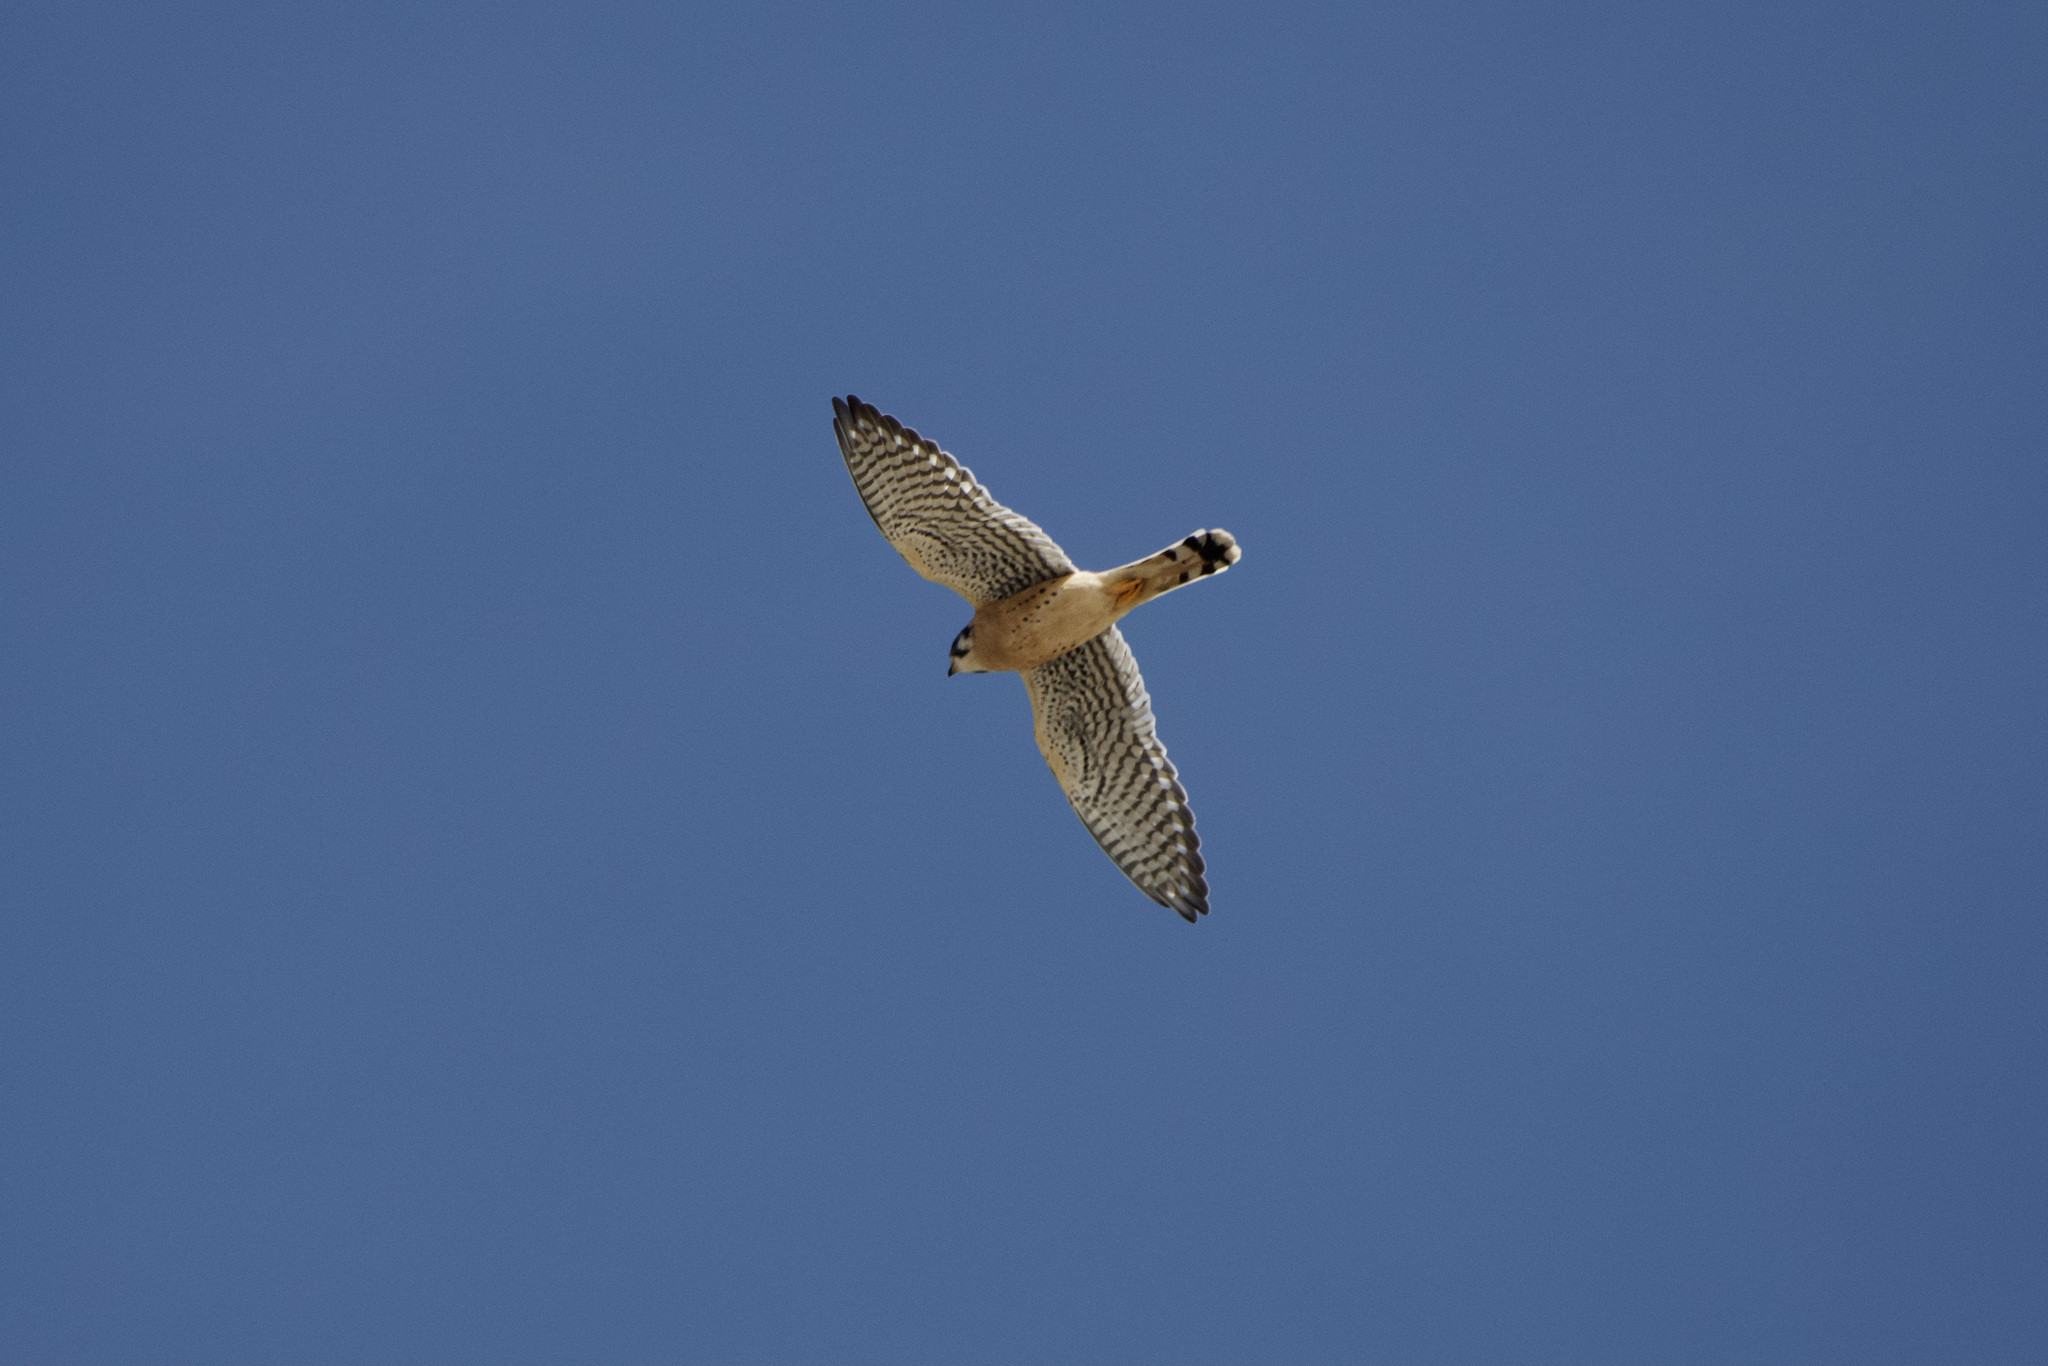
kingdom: Animalia
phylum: Chordata
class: Aves
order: Falconiformes
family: Falconidae
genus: Falco
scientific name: Falco sparverius
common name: American kestrel
